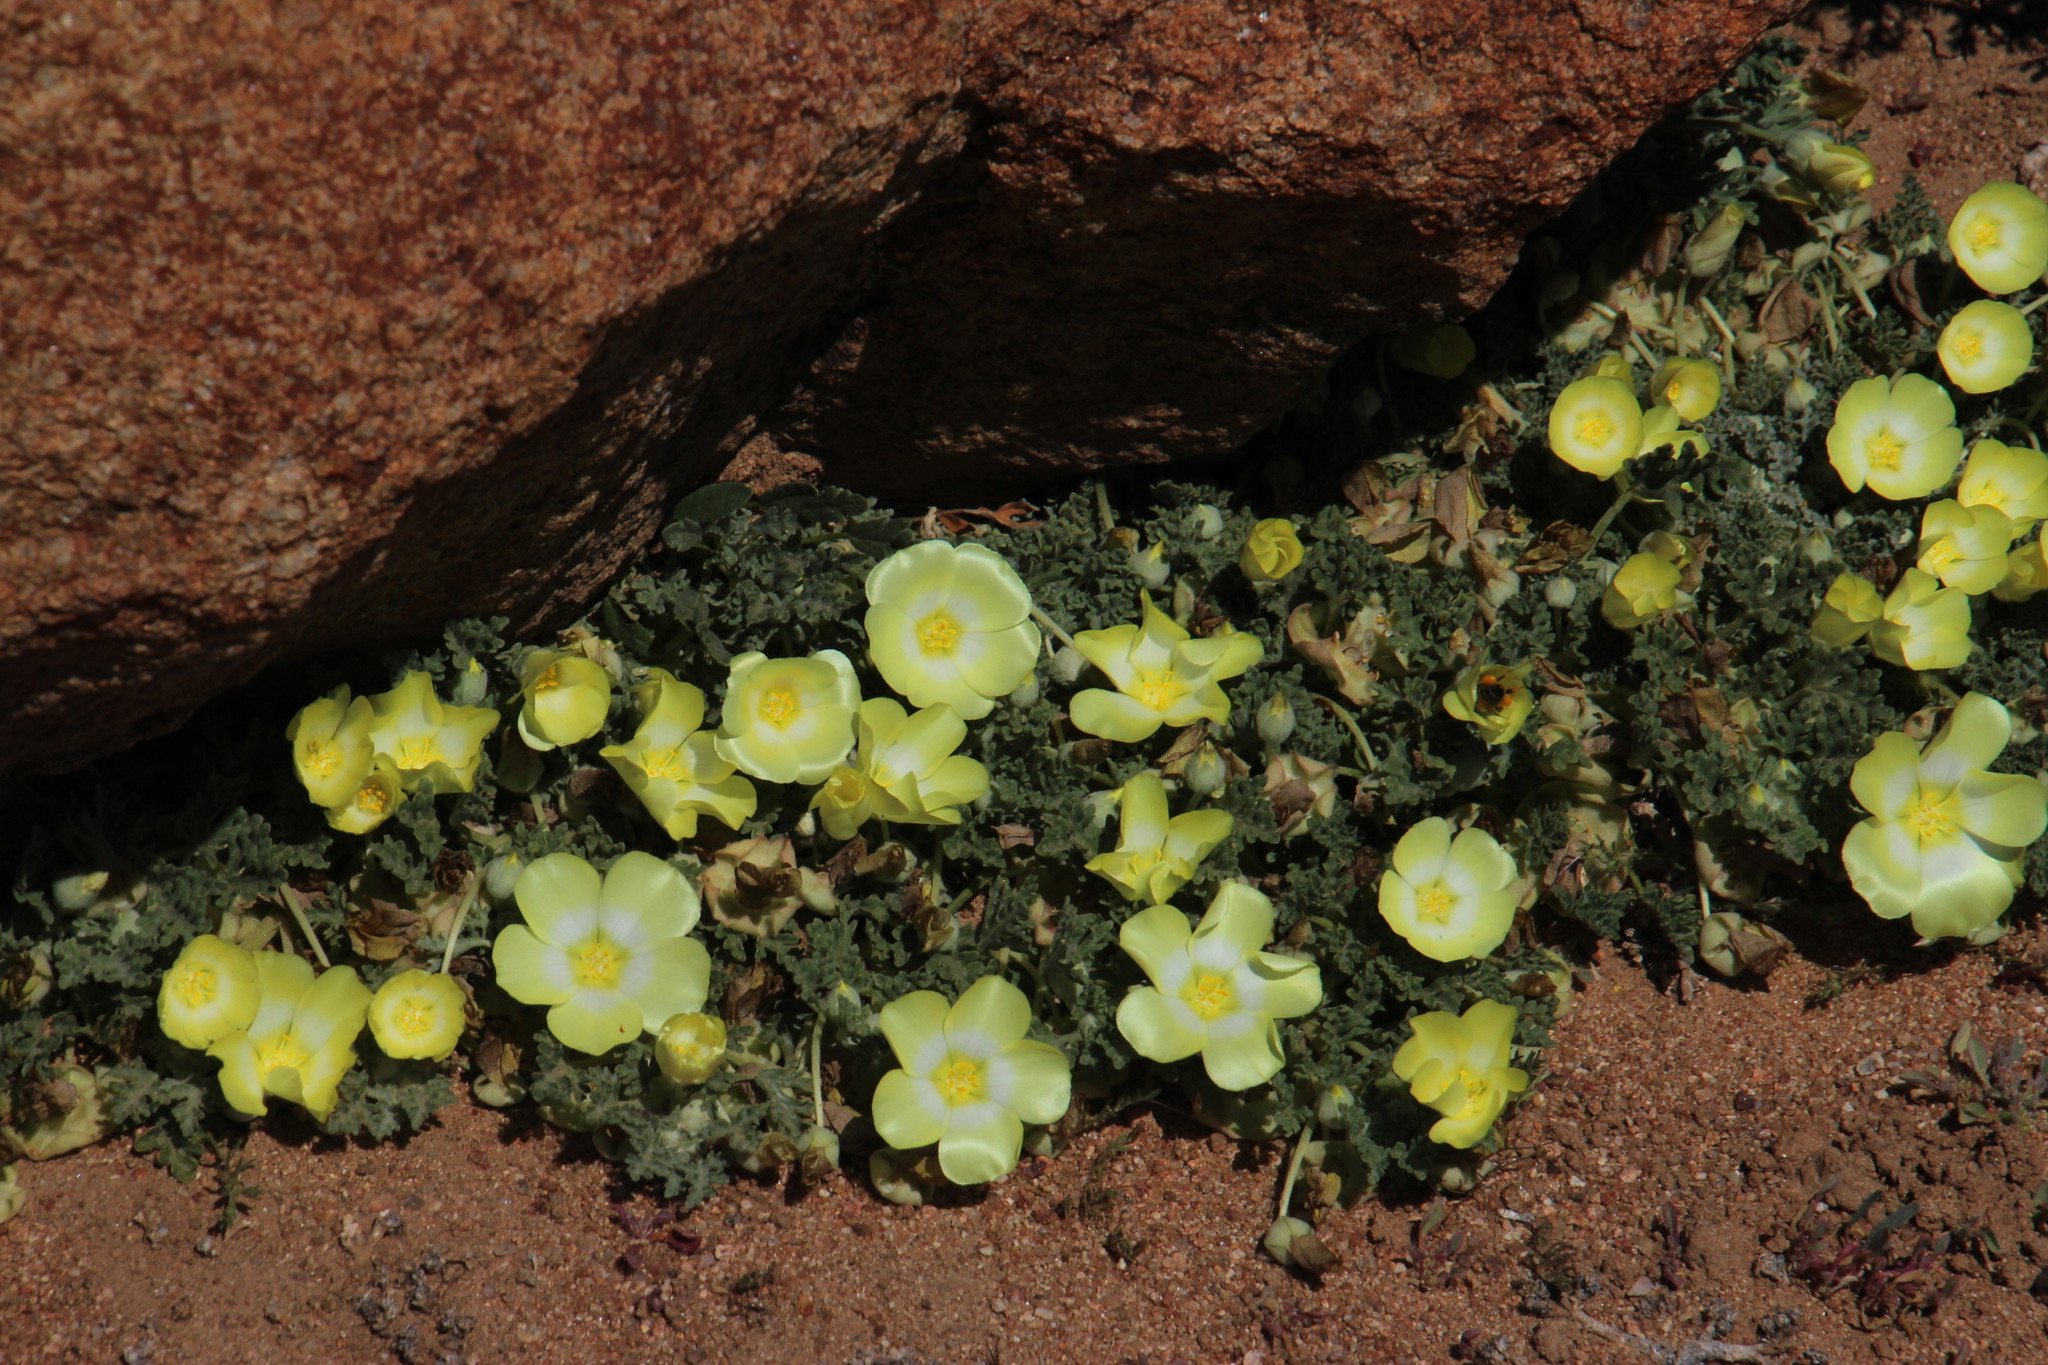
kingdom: Plantae
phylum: Tracheophyta
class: Magnoliopsida
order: Malvales
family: Neuradaceae
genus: Grielum
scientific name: Grielum humifusum
